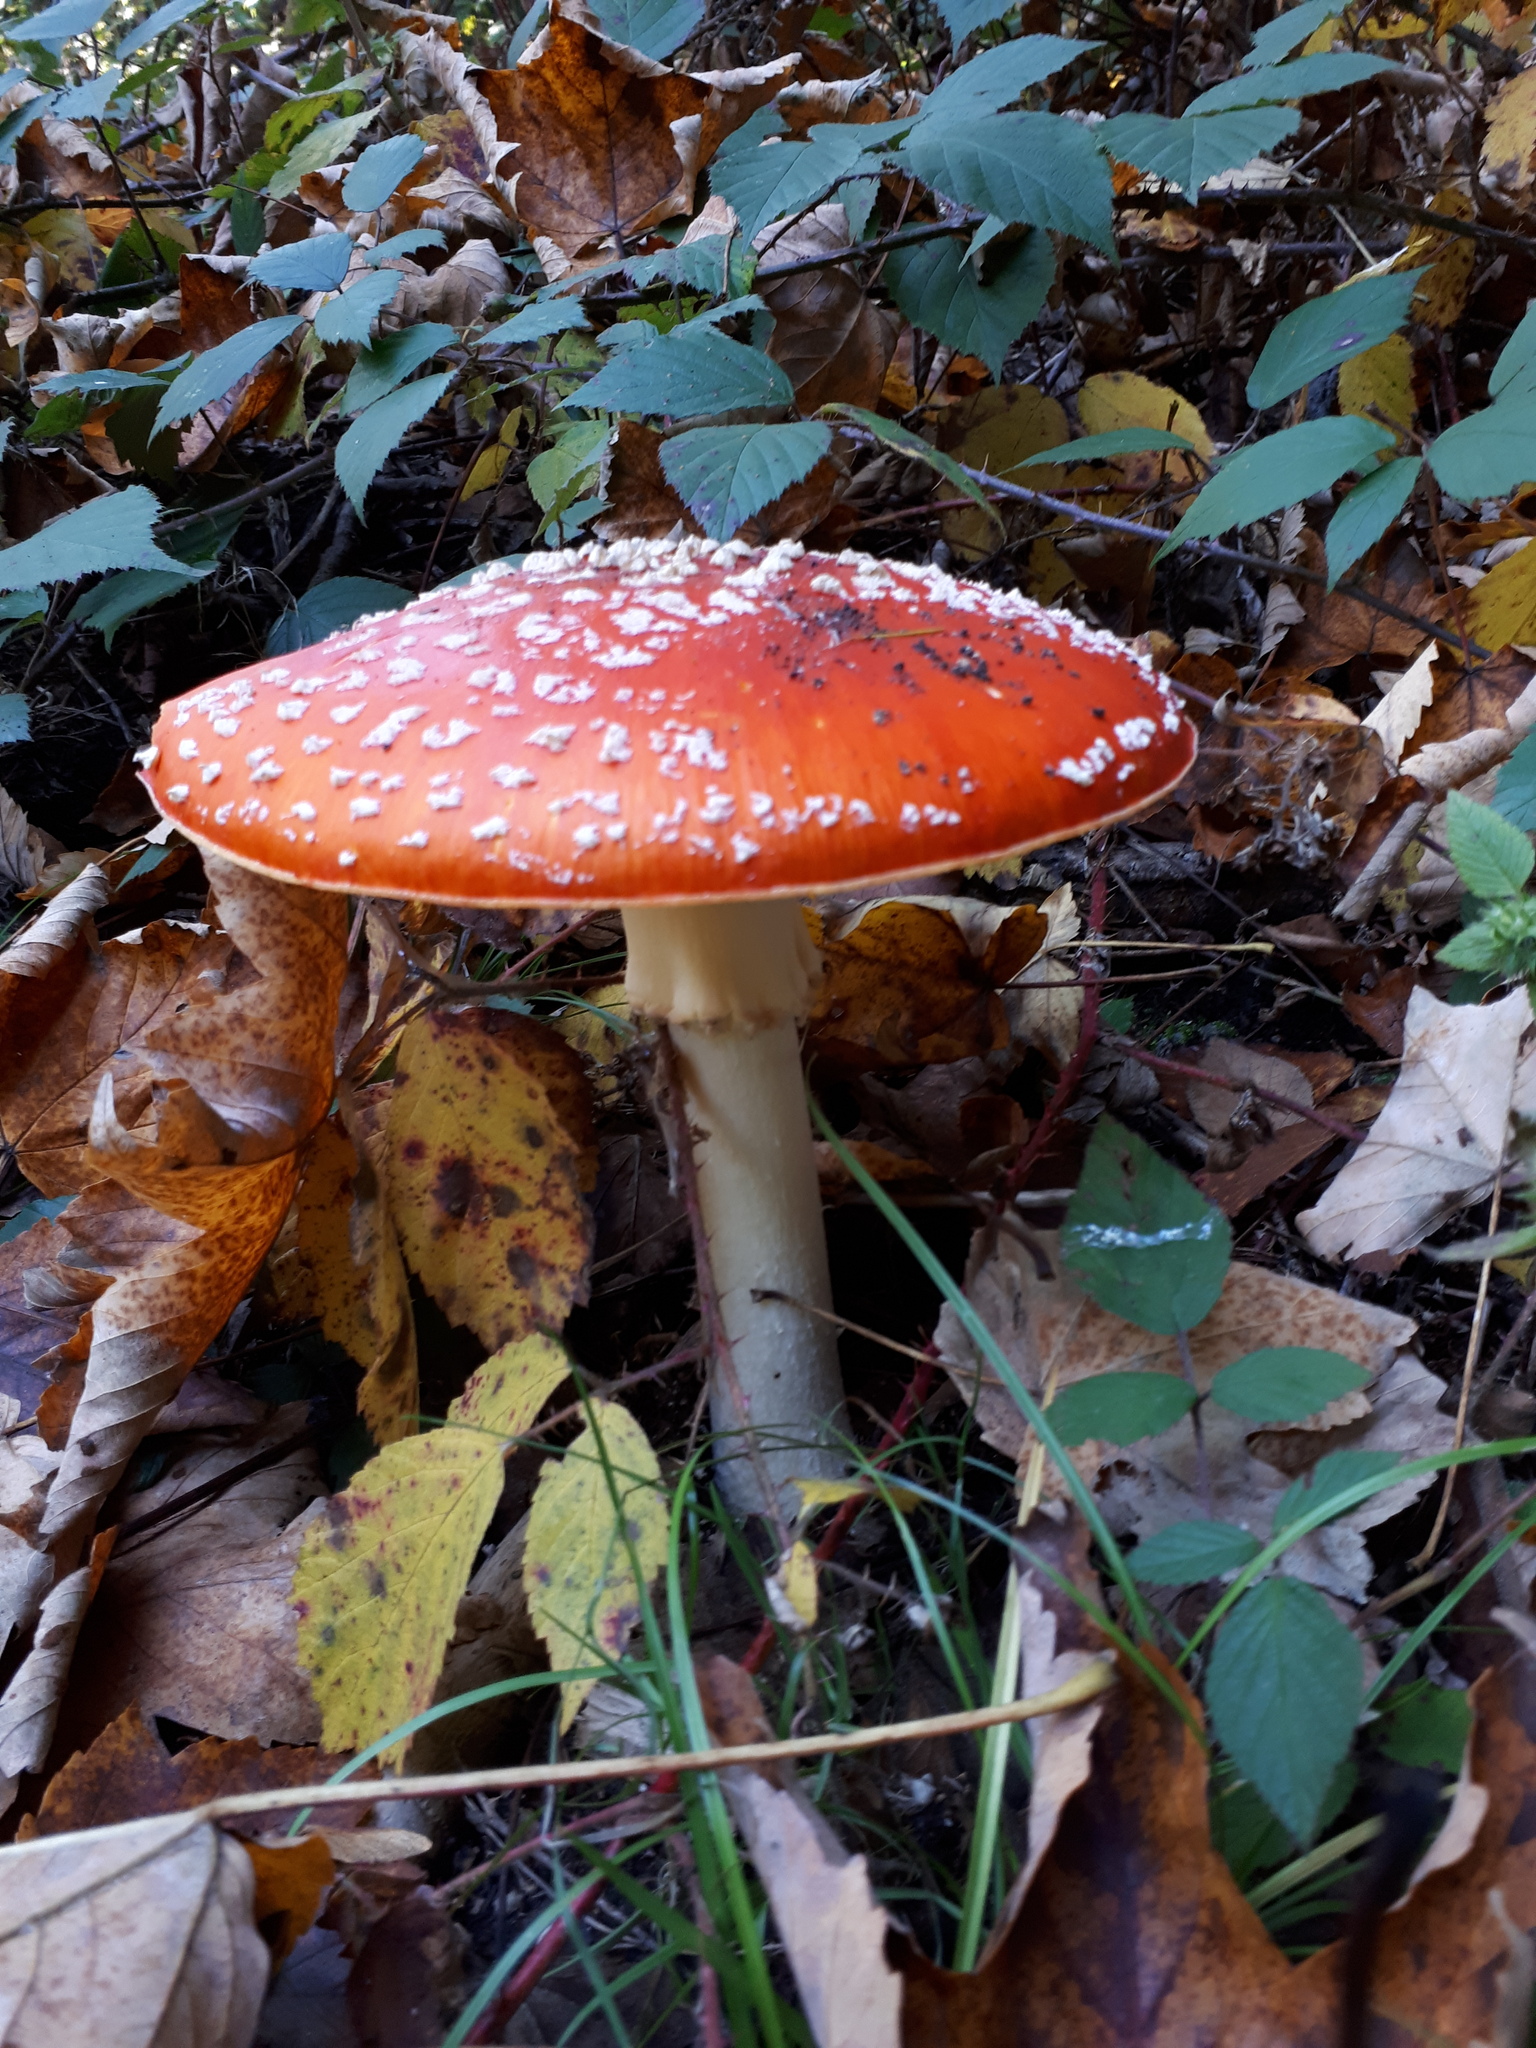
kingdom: Fungi
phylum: Basidiomycota
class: Agaricomycetes
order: Agaricales
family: Amanitaceae
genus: Amanita
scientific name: Amanita muscaria
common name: Fly agaric
